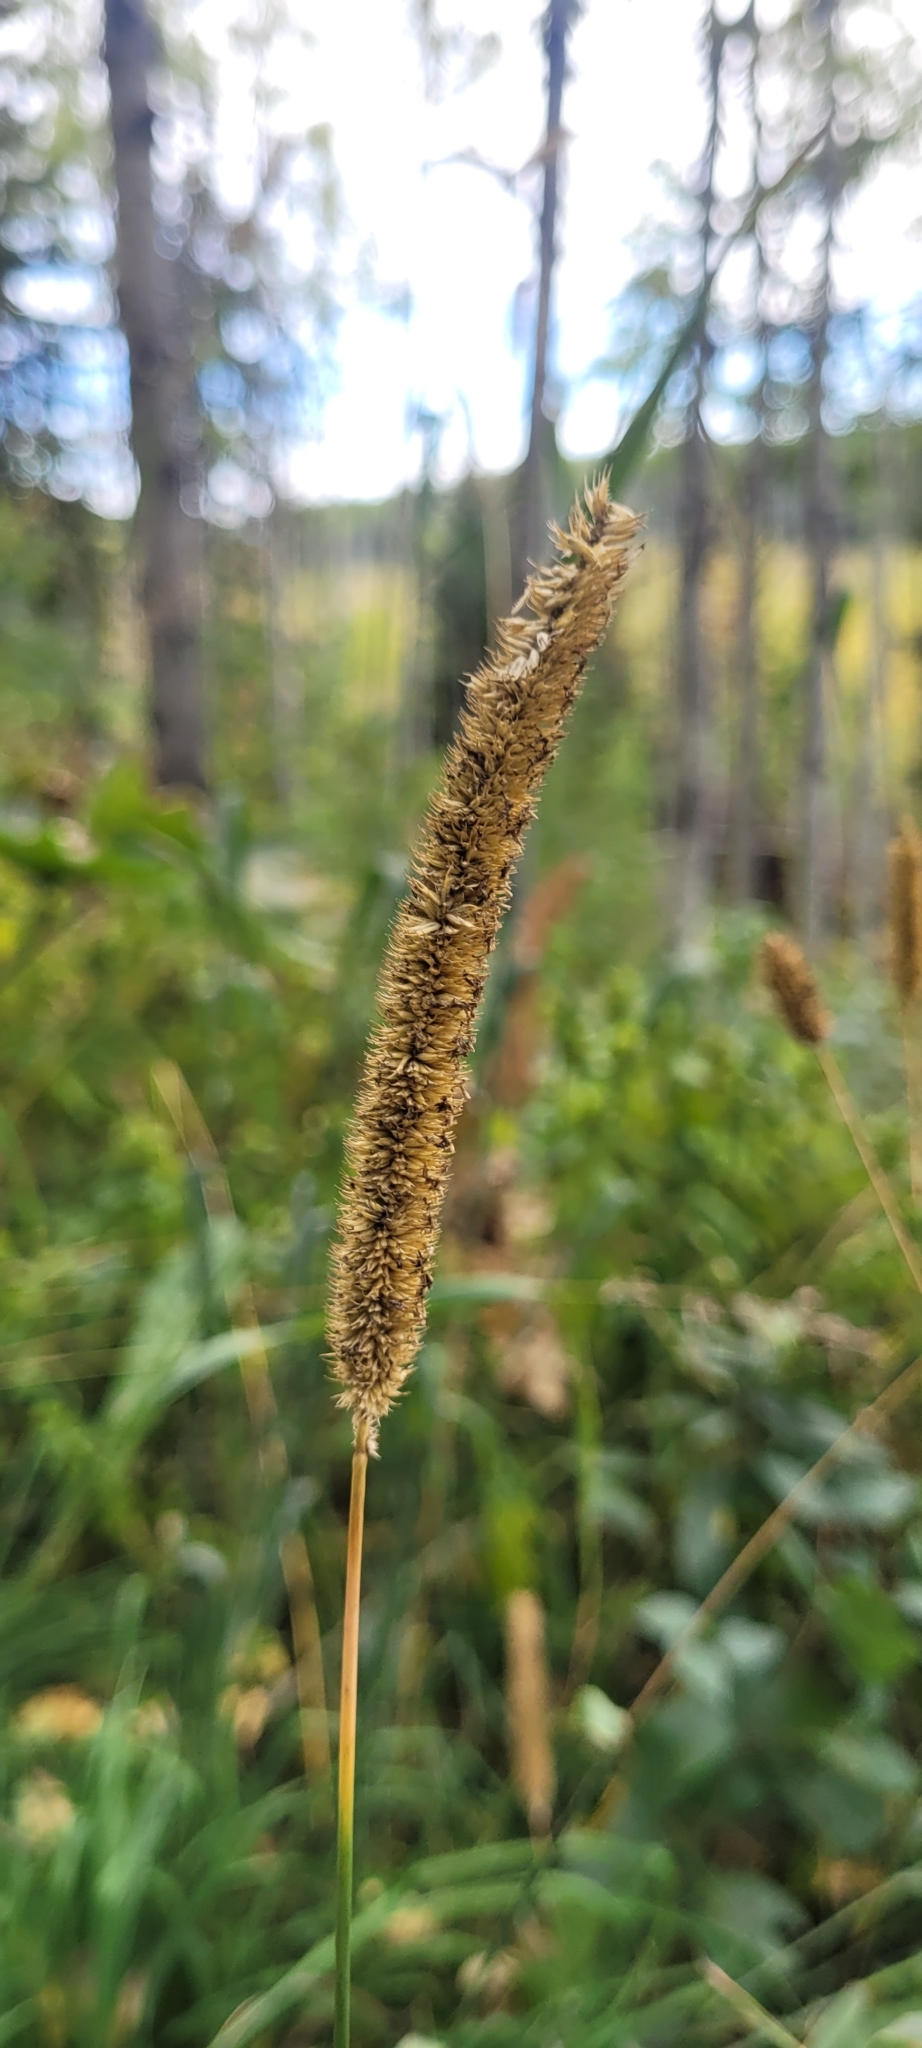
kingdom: Plantae
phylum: Tracheophyta
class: Liliopsida
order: Poales
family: Poaceae
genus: Phleum
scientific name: Phleum pratense
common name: Timothy grass
